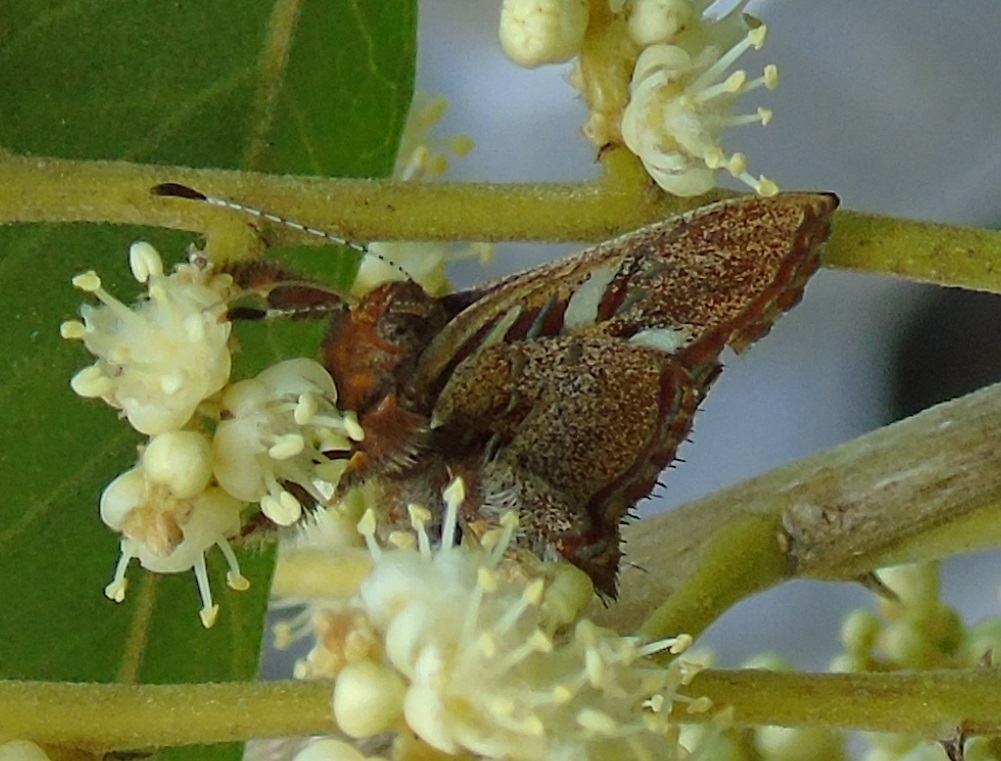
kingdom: Animalia
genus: Anteros
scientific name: Anteros carausius
